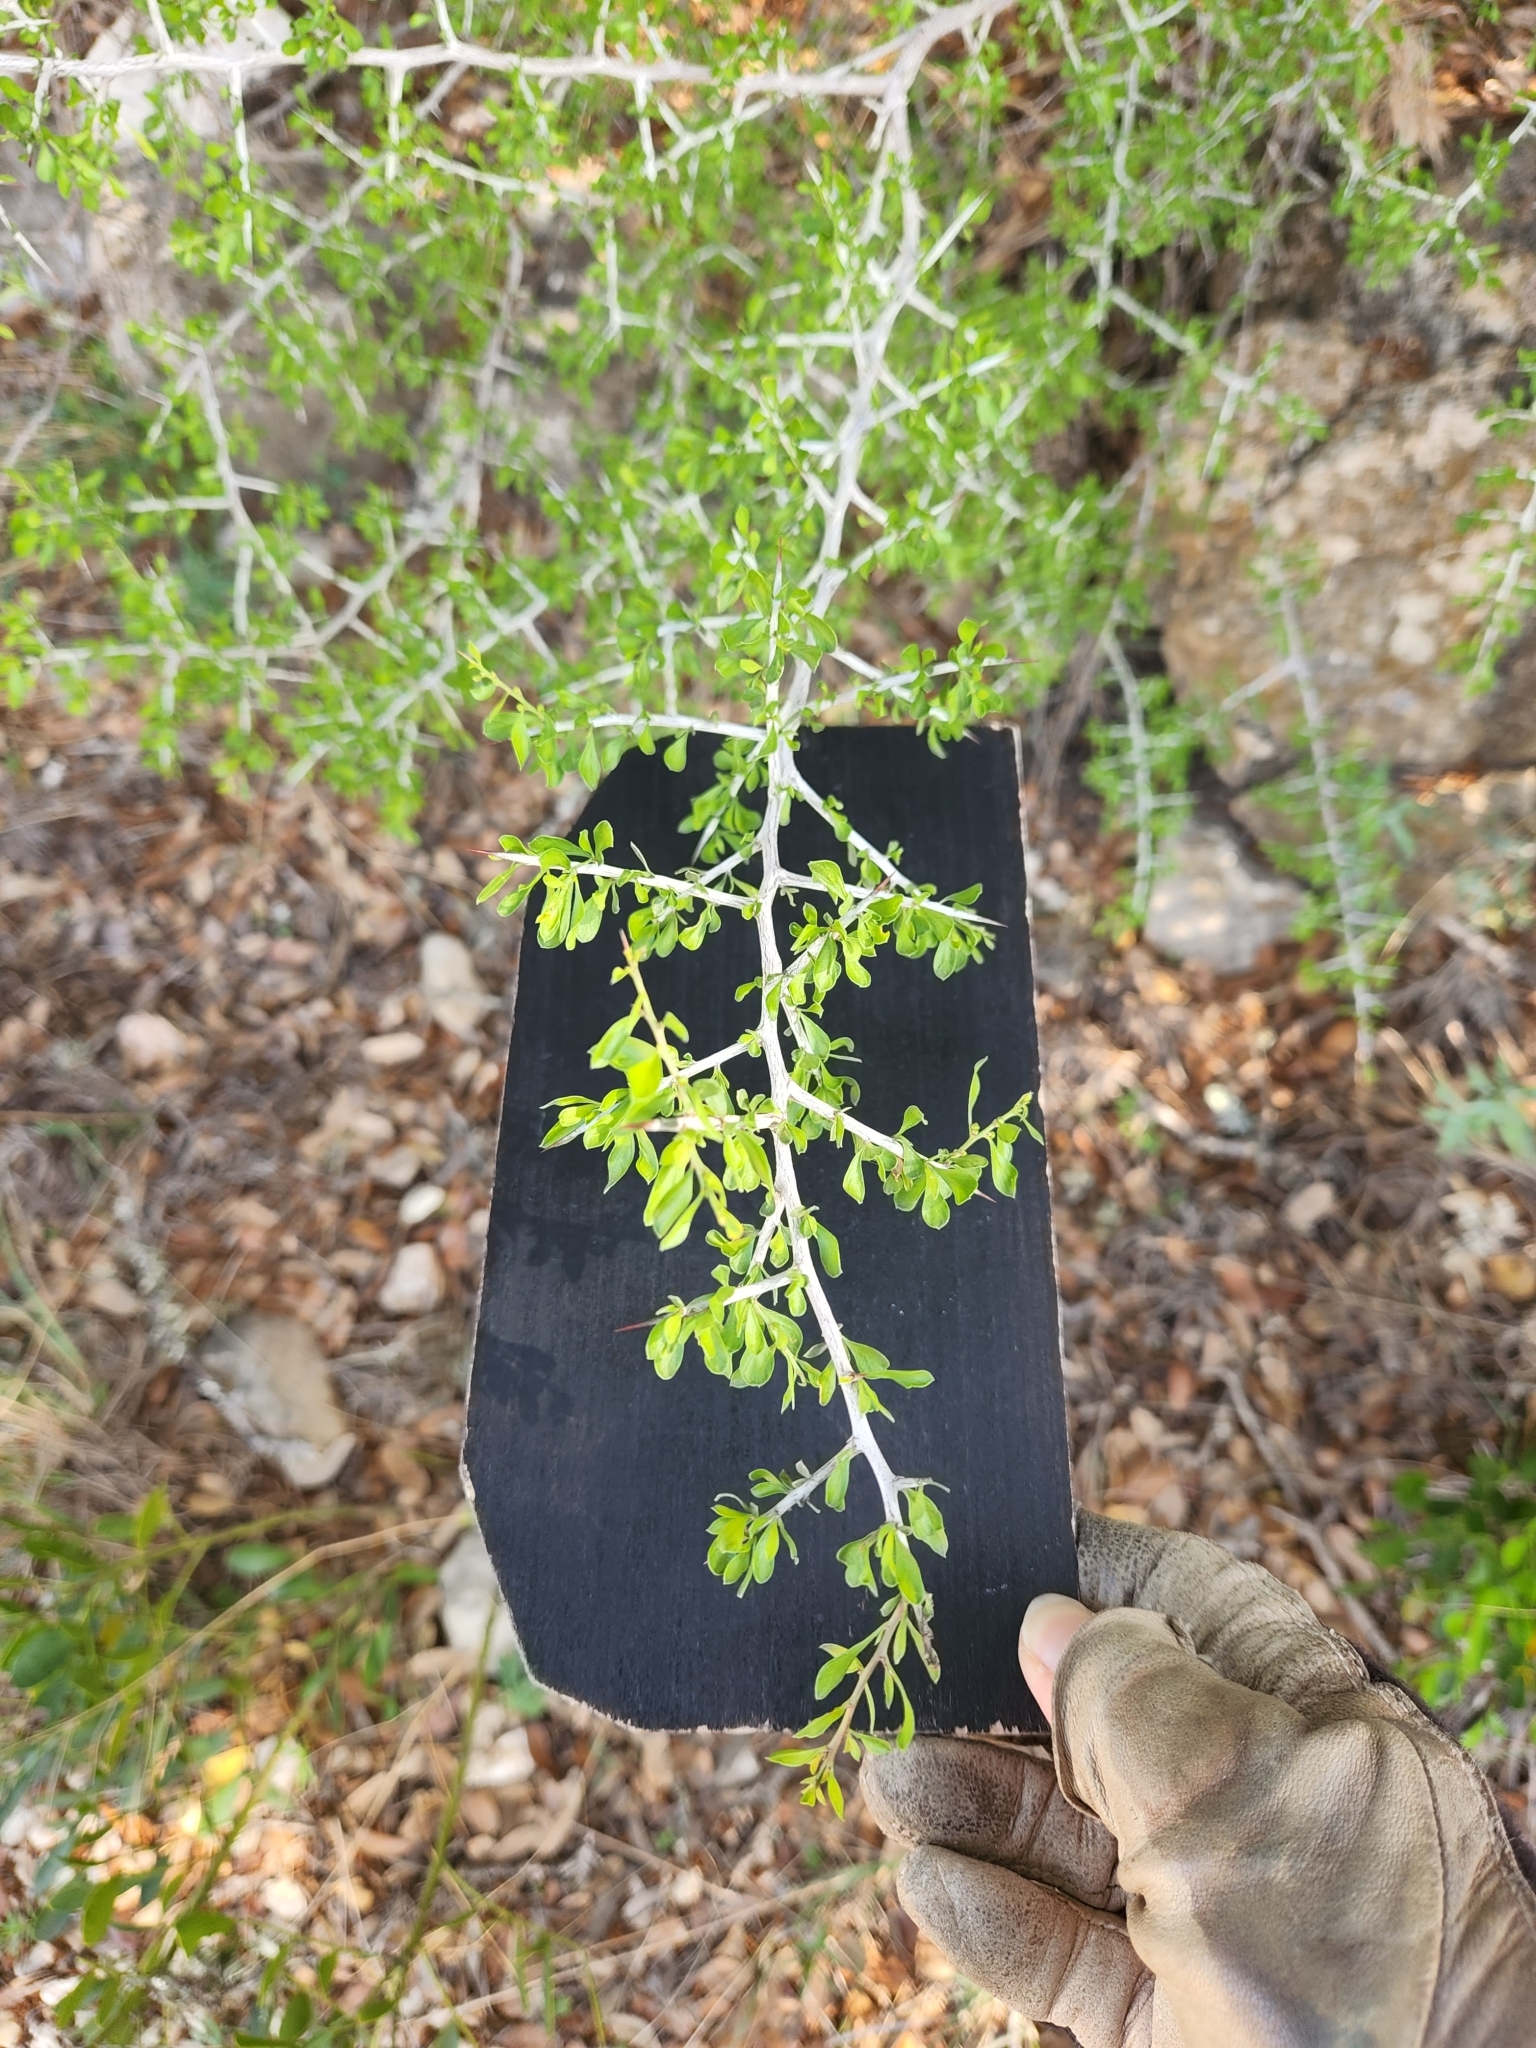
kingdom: Plantae
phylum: Tracheophyta
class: Magnoliopsida
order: Rosales
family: Rhamnaceae
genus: Condalia
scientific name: Condalia viridis
